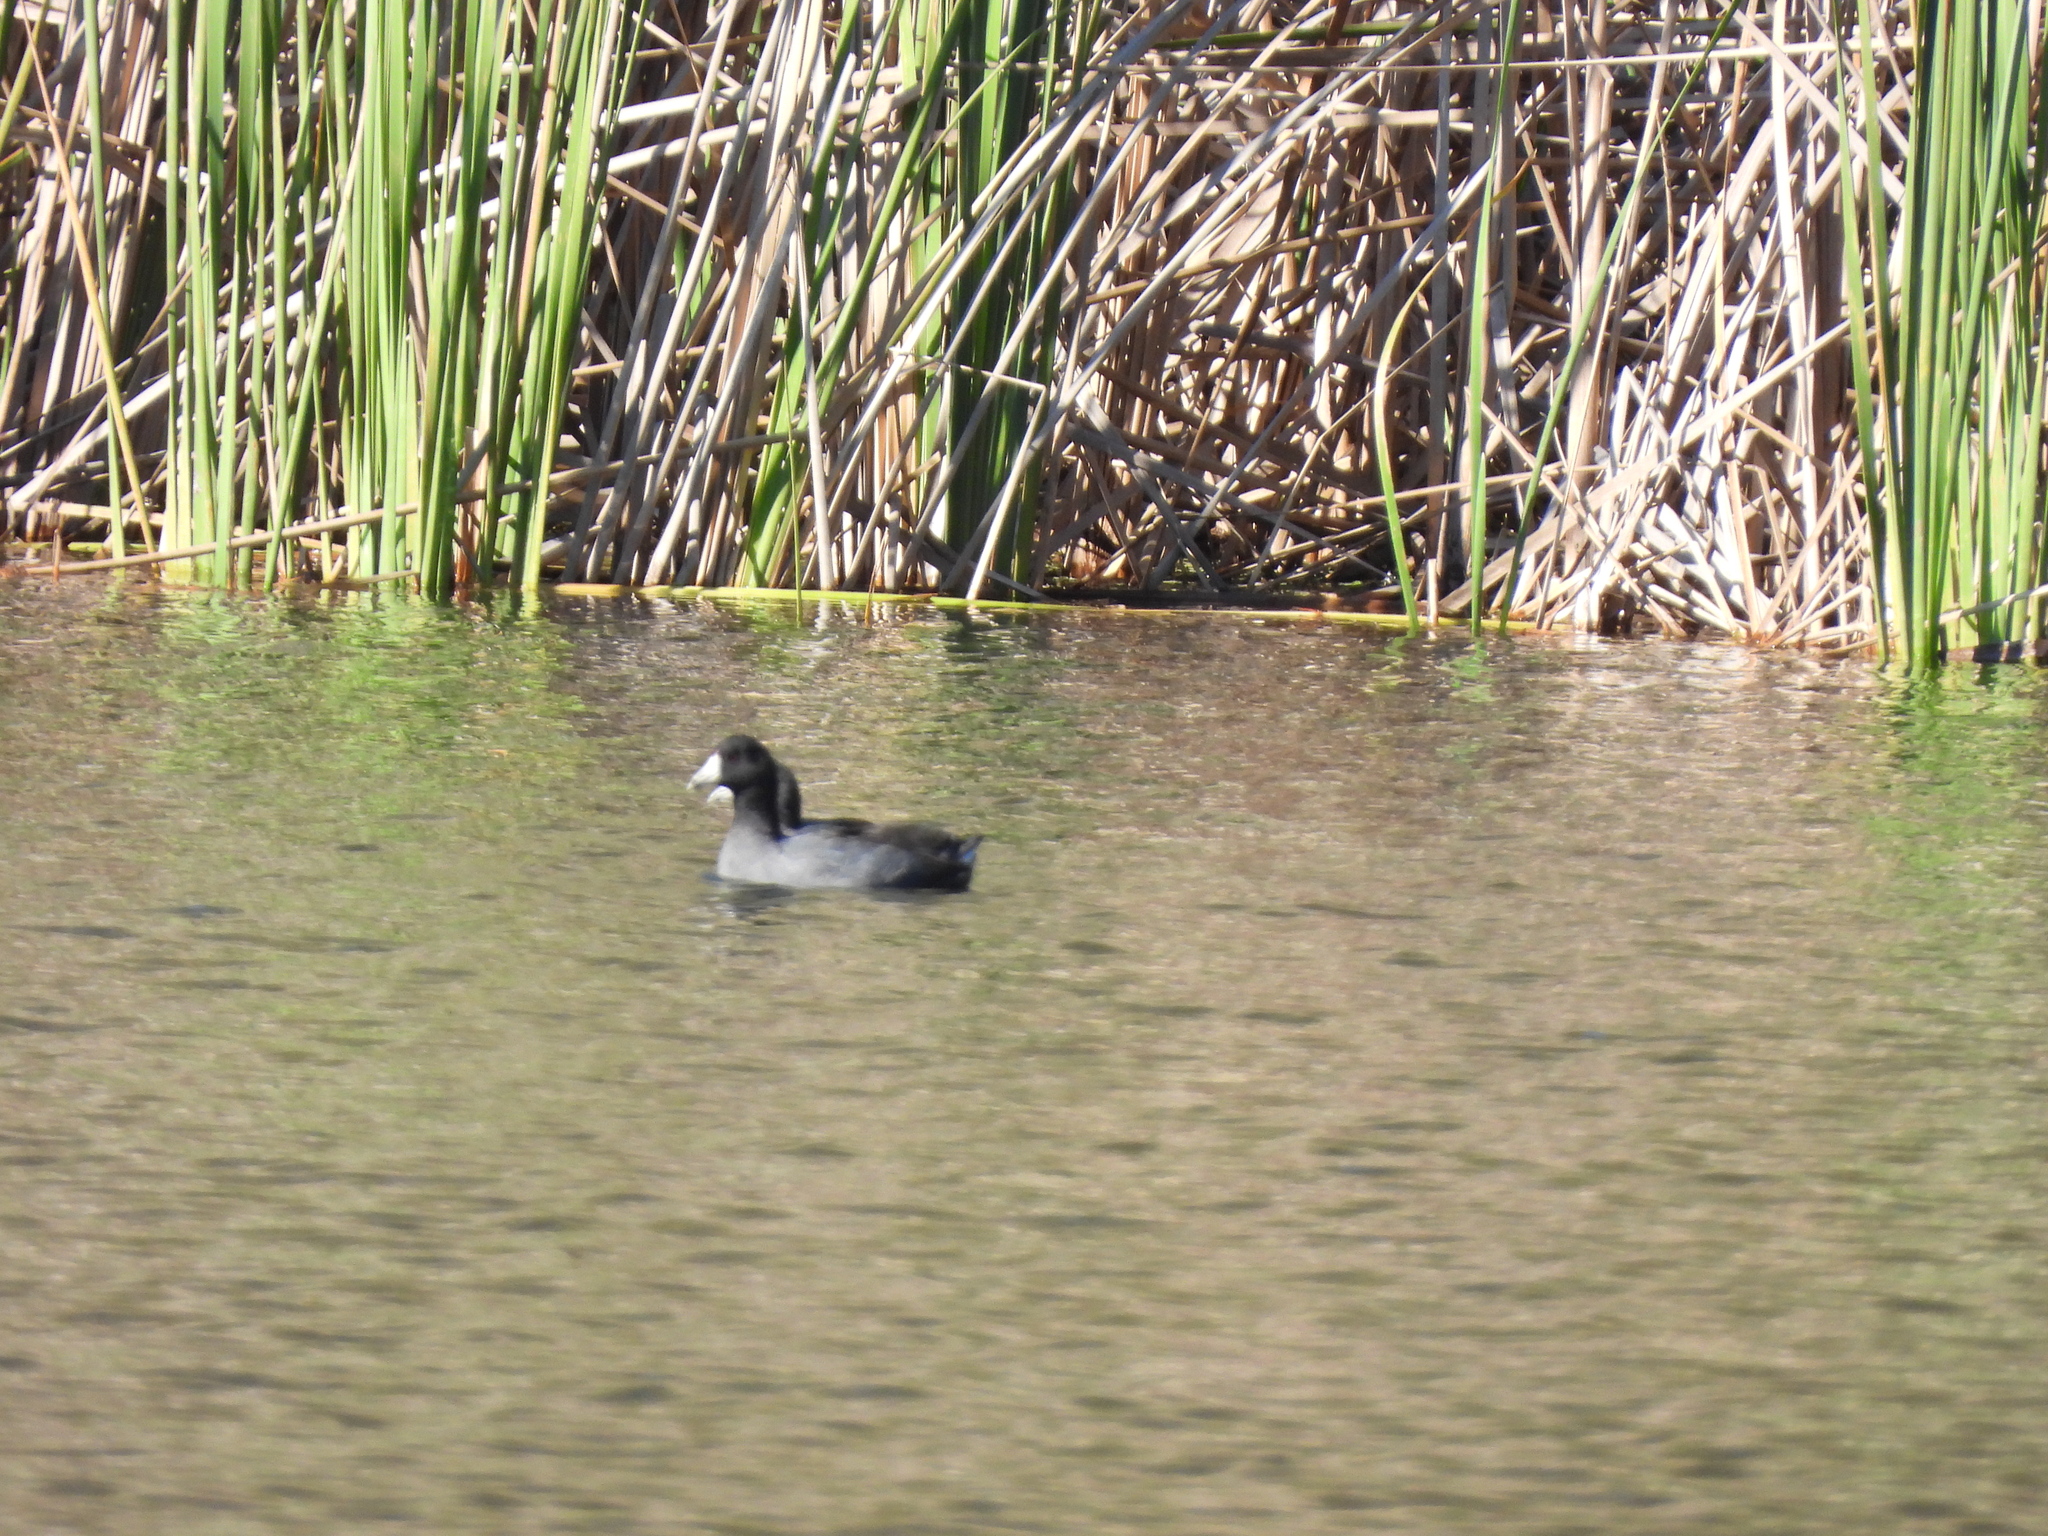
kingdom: Animalia
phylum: Chordata
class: Aves
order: Gruiformes
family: Rallidae
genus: Fulica
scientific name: Fulica americana
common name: American coot
